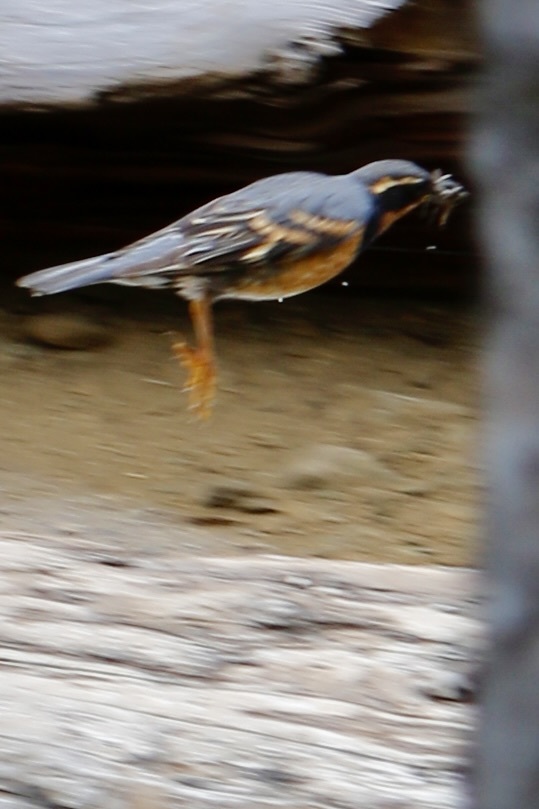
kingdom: Animalia
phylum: Chordata
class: Aves
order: Passeriformes
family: Turdidae
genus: Ixoreus
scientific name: Ixoreus naevius
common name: Varied thrush
